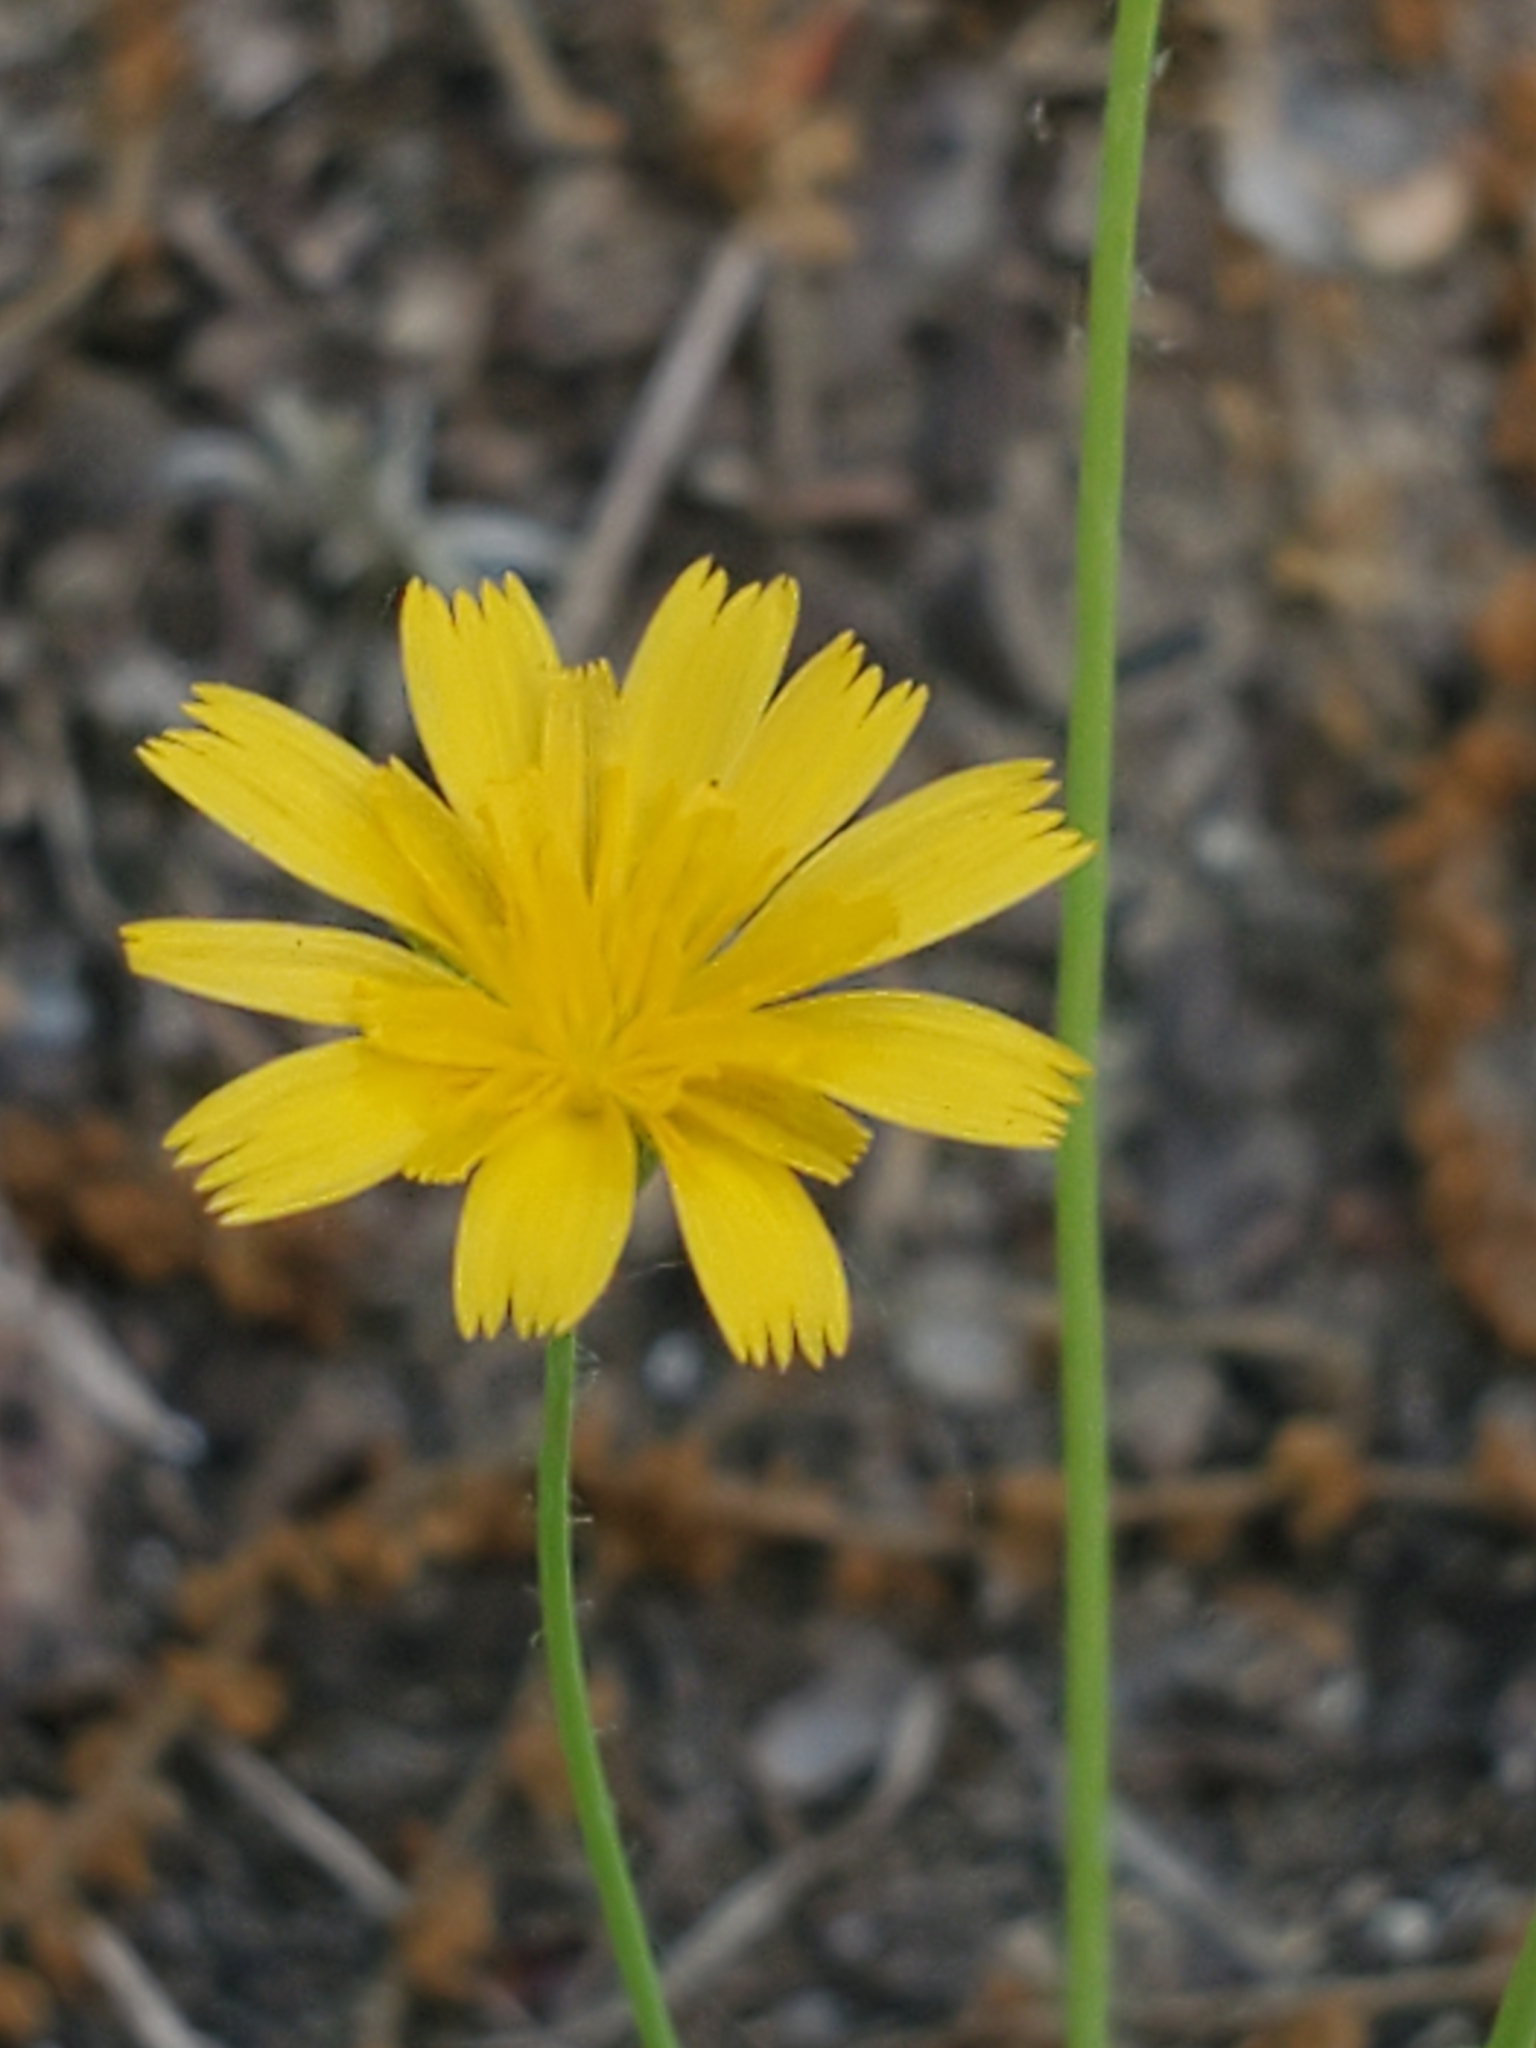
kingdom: Plantae
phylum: Tracheophyta
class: Magnoliopsida
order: Asterales
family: Asteraceae
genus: Krigia
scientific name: Krigia virginica
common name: Virginia dwarf-dandelion
